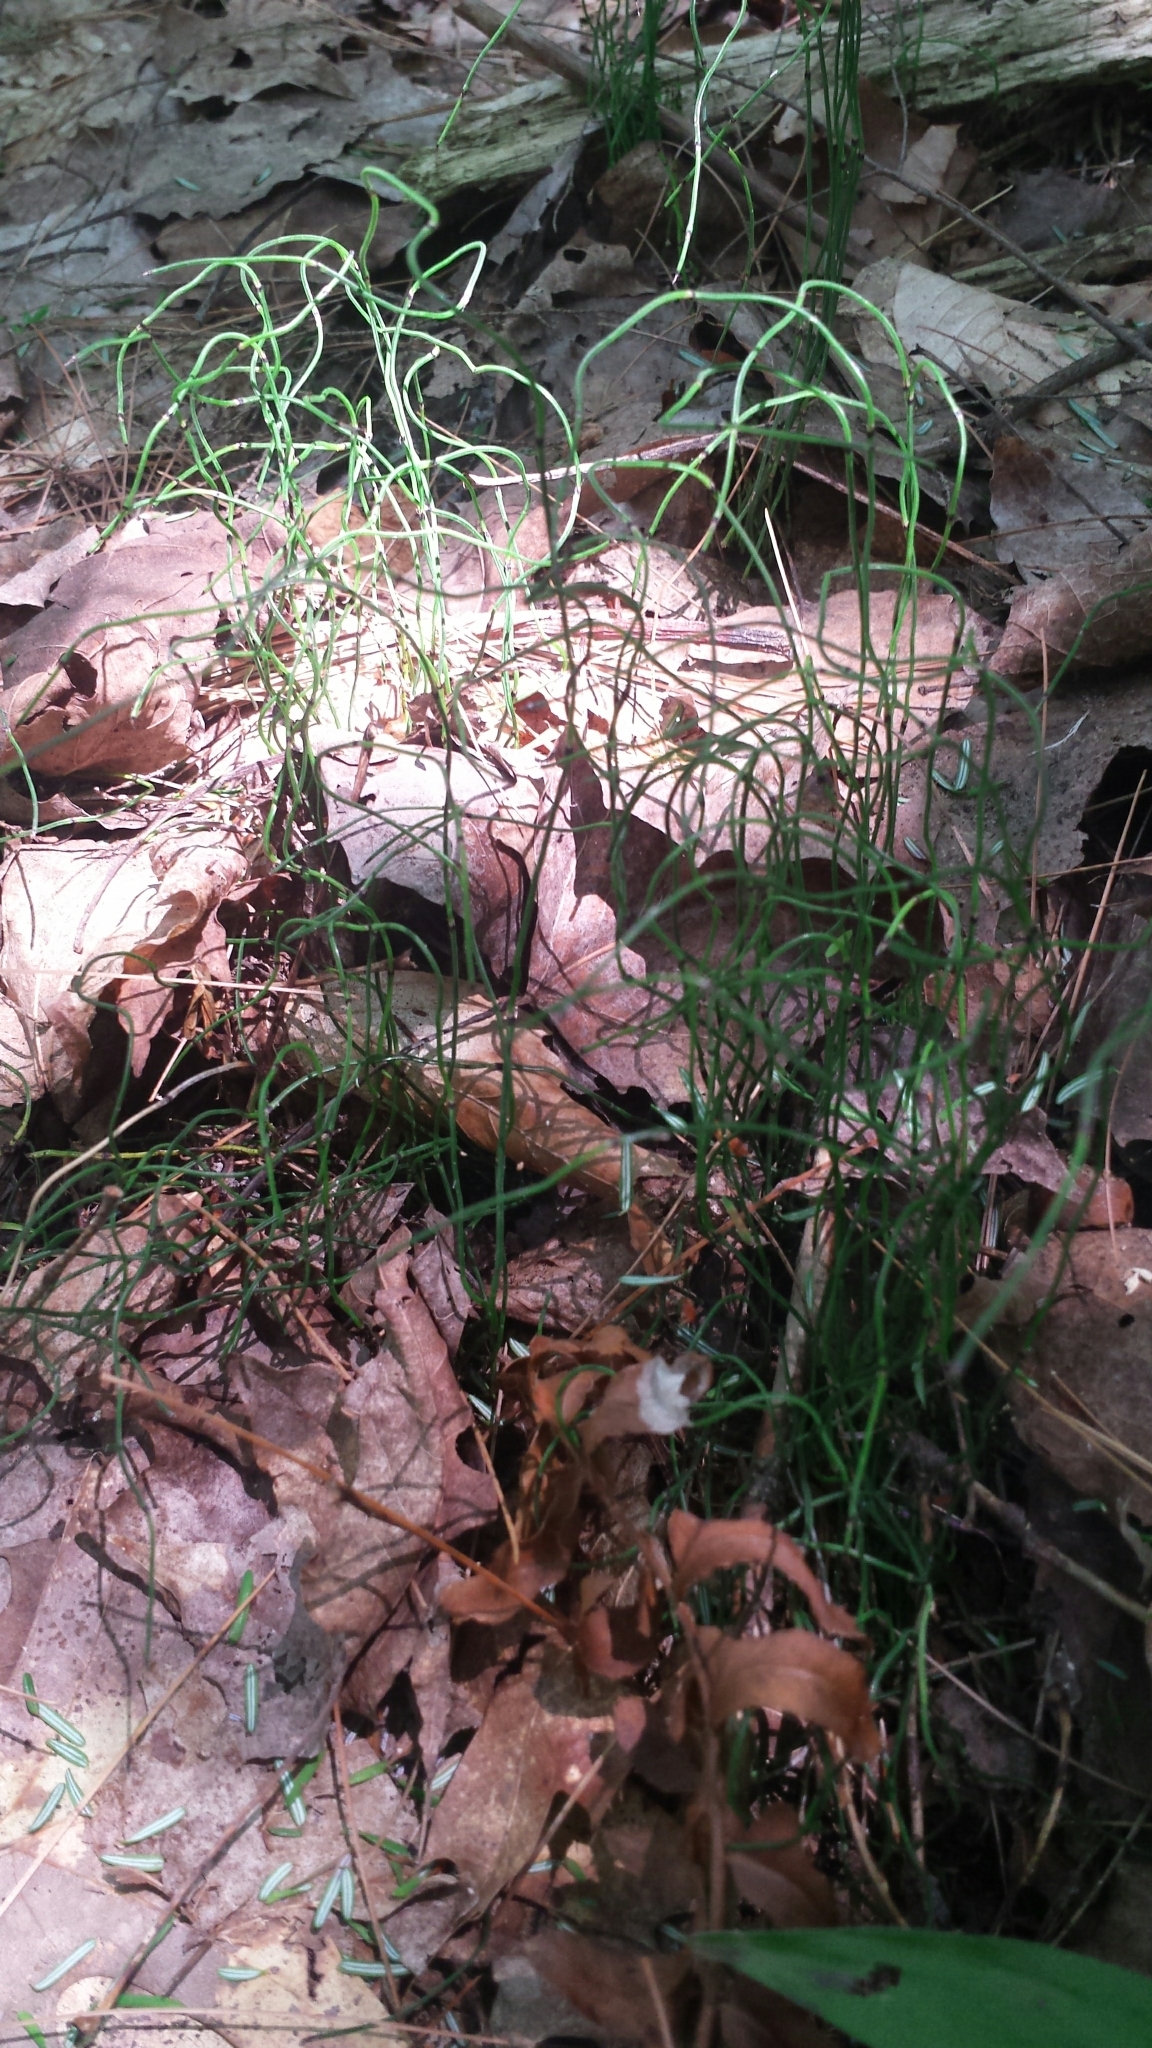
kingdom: Plantae
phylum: Tracheophyta
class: Polypodiopsida
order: Equisetales
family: Equisetaceae
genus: Equisetum
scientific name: Equisetum scirpoides
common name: Delicate horsetail
